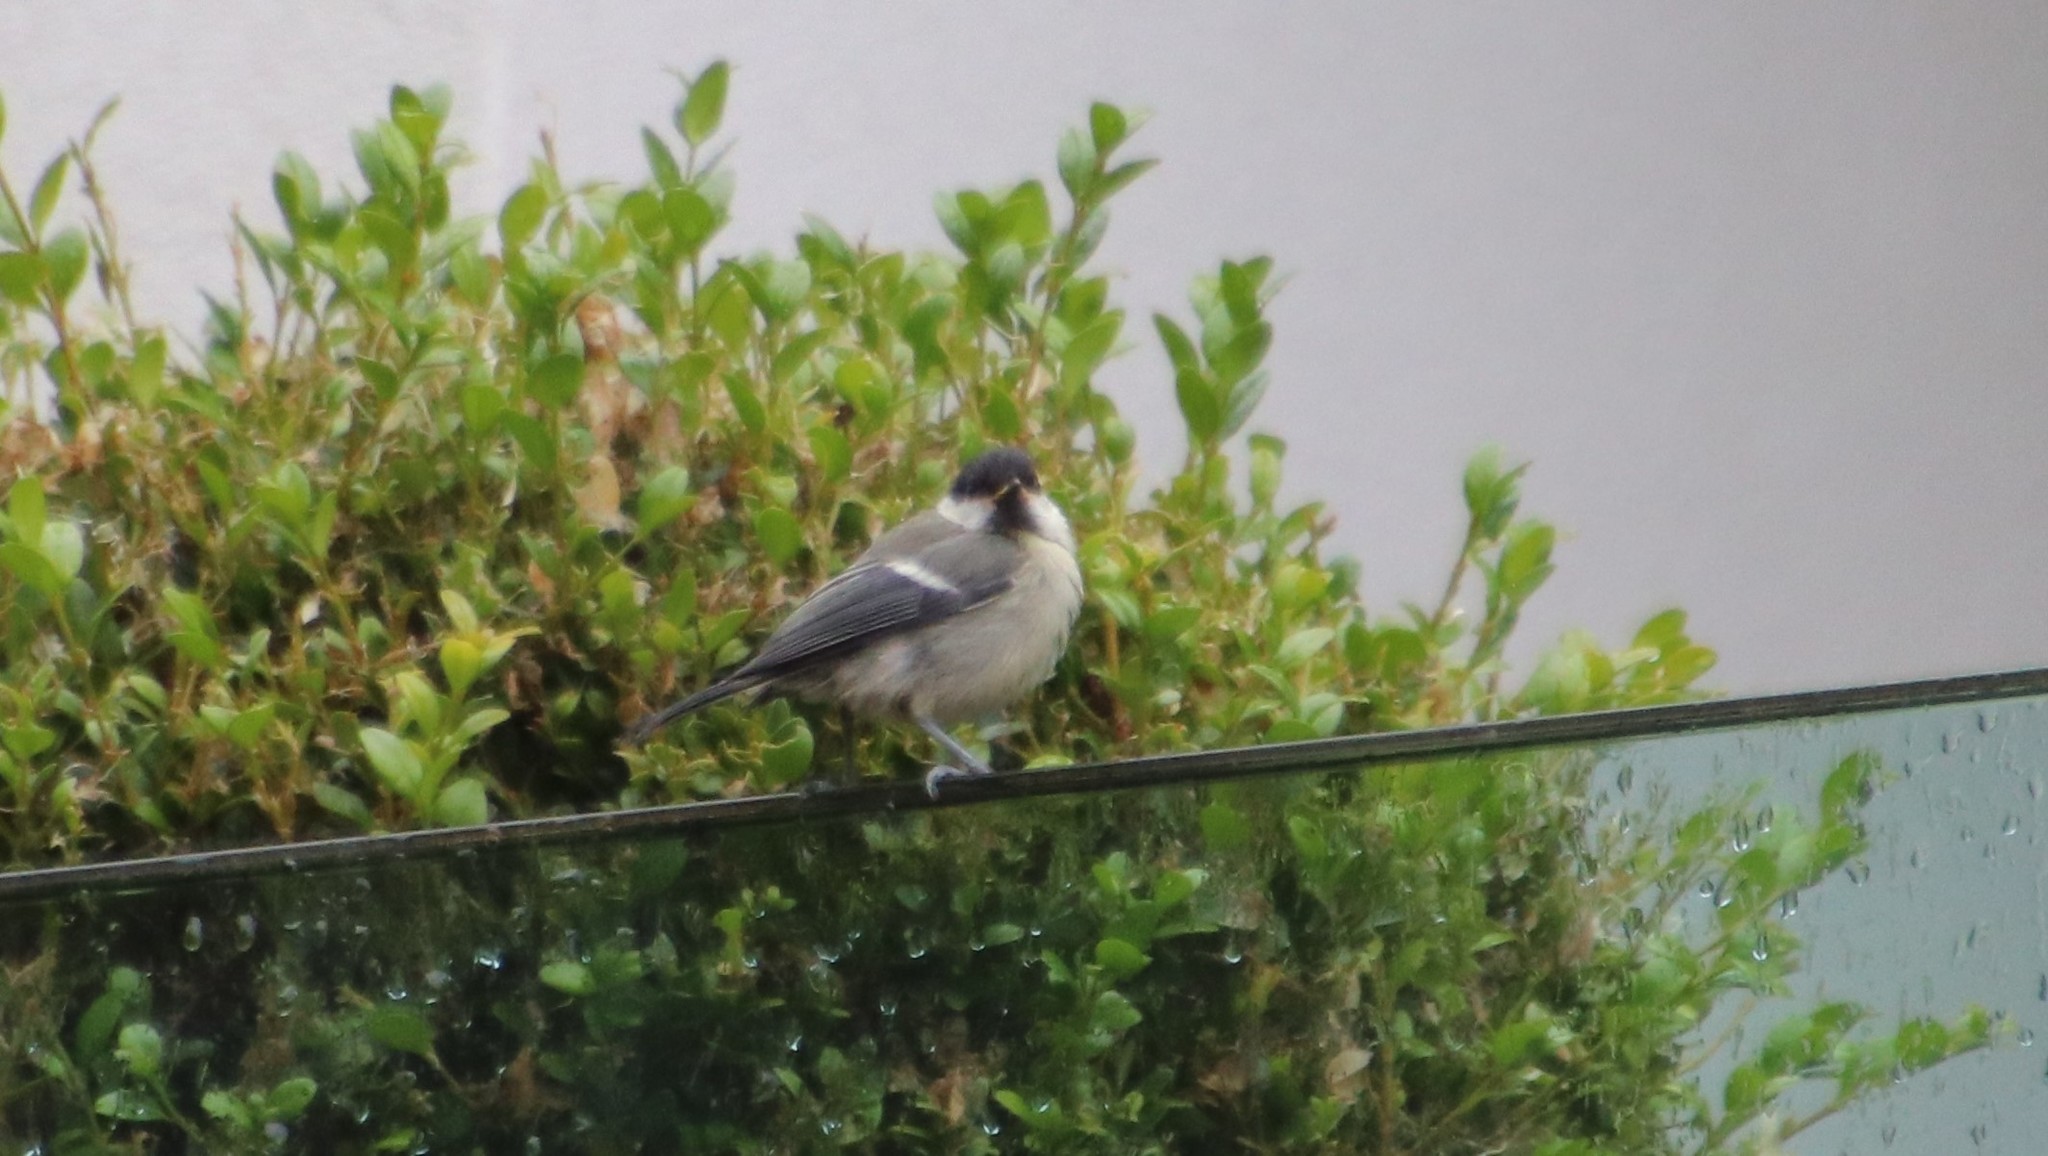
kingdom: Animalia
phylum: Chordata
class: Aves
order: Passeriformes
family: Paridae
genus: Parus
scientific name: Parus major
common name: Great tit
